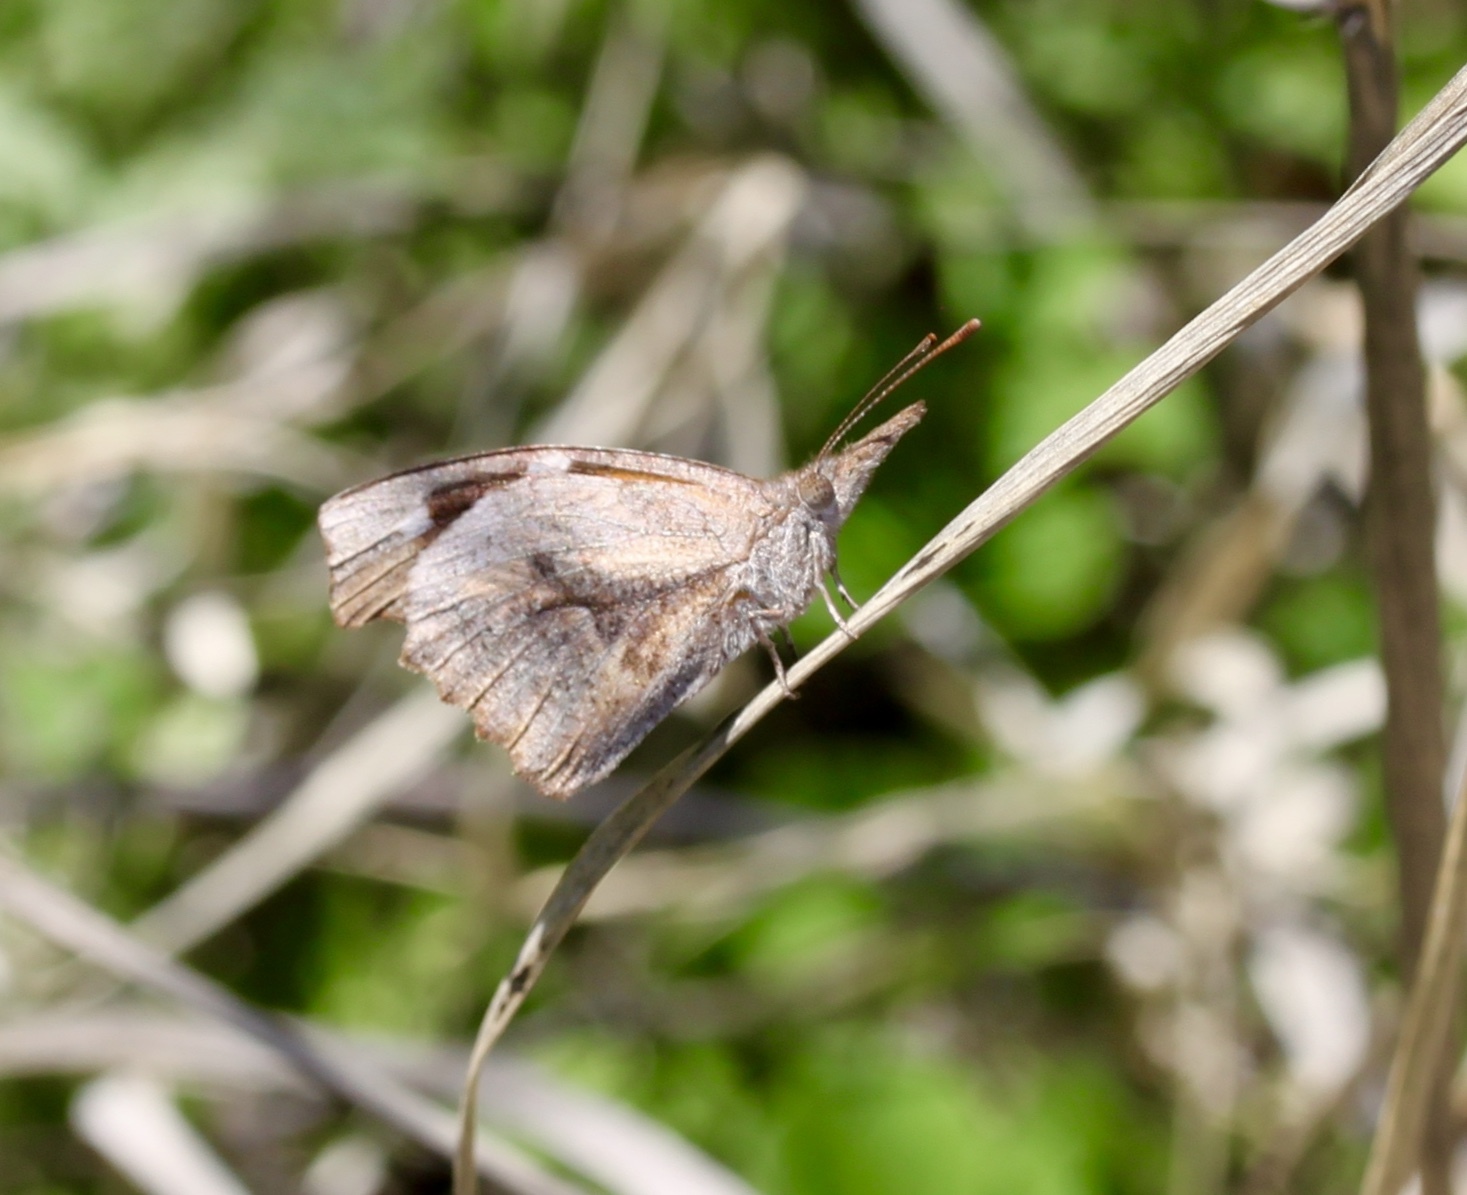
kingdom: Animalia
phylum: Arthropoda
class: Insecta
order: Lepidoptera
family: Nymphalidae
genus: Libytheana
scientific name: Libytheana carinenta
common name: American snout
